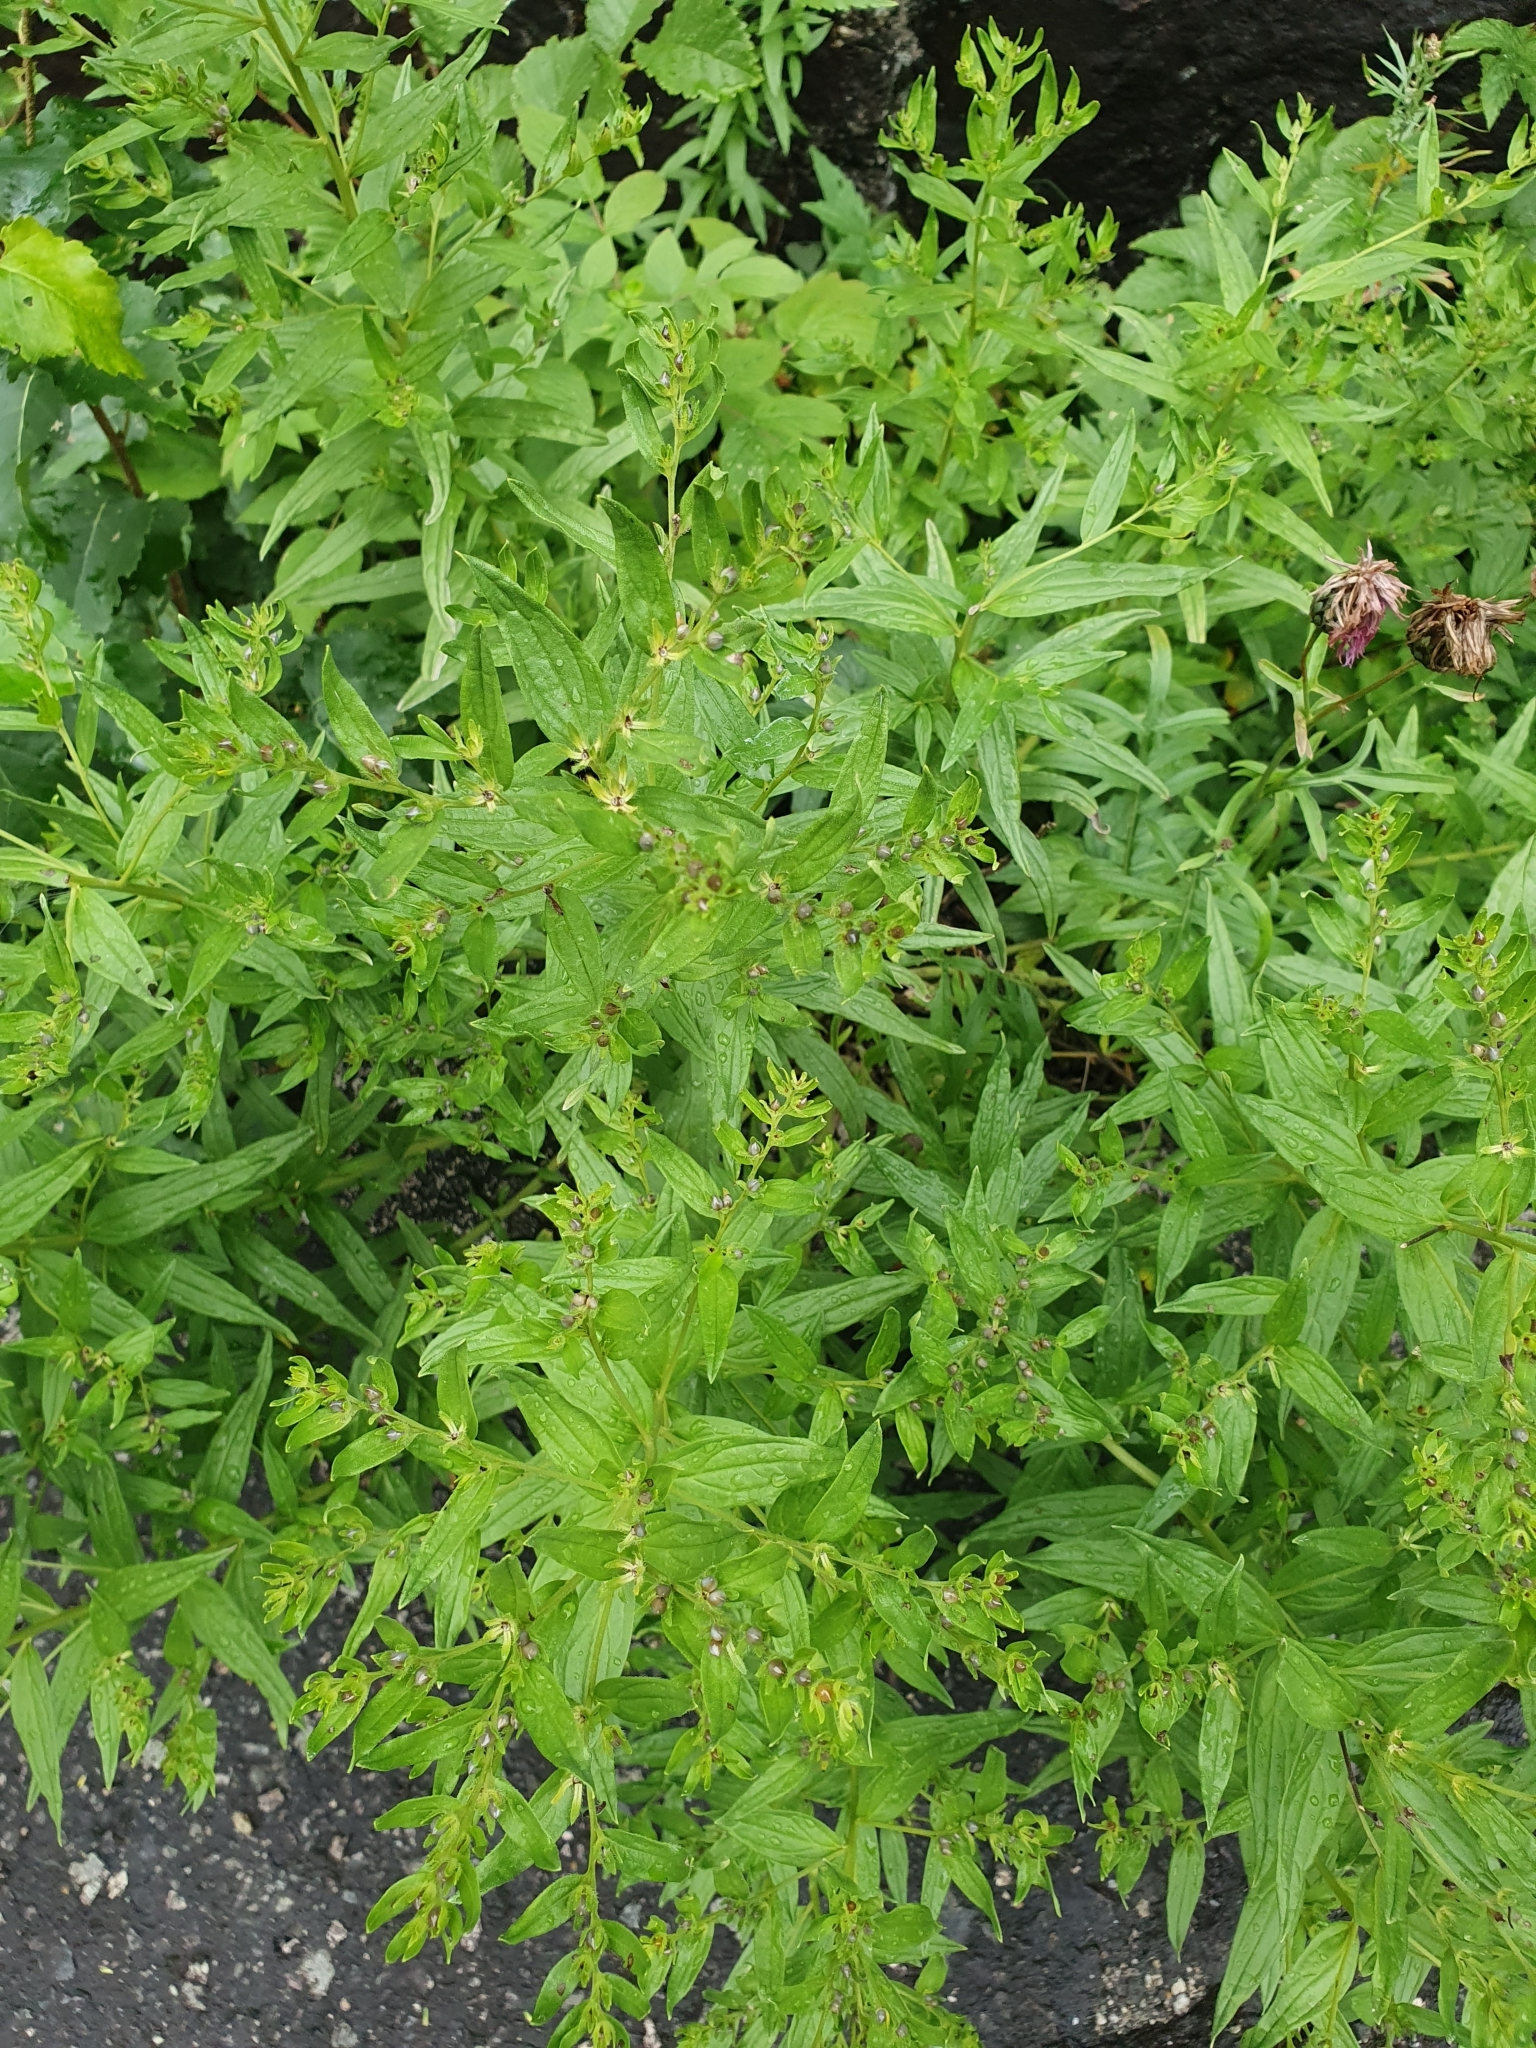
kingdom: Plantae
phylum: Tracheophyta
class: Magnoliopsida
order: Boraginales
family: Boraginaceae
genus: Lithospermum
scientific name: Lithospermum officinale
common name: Common gromwell
